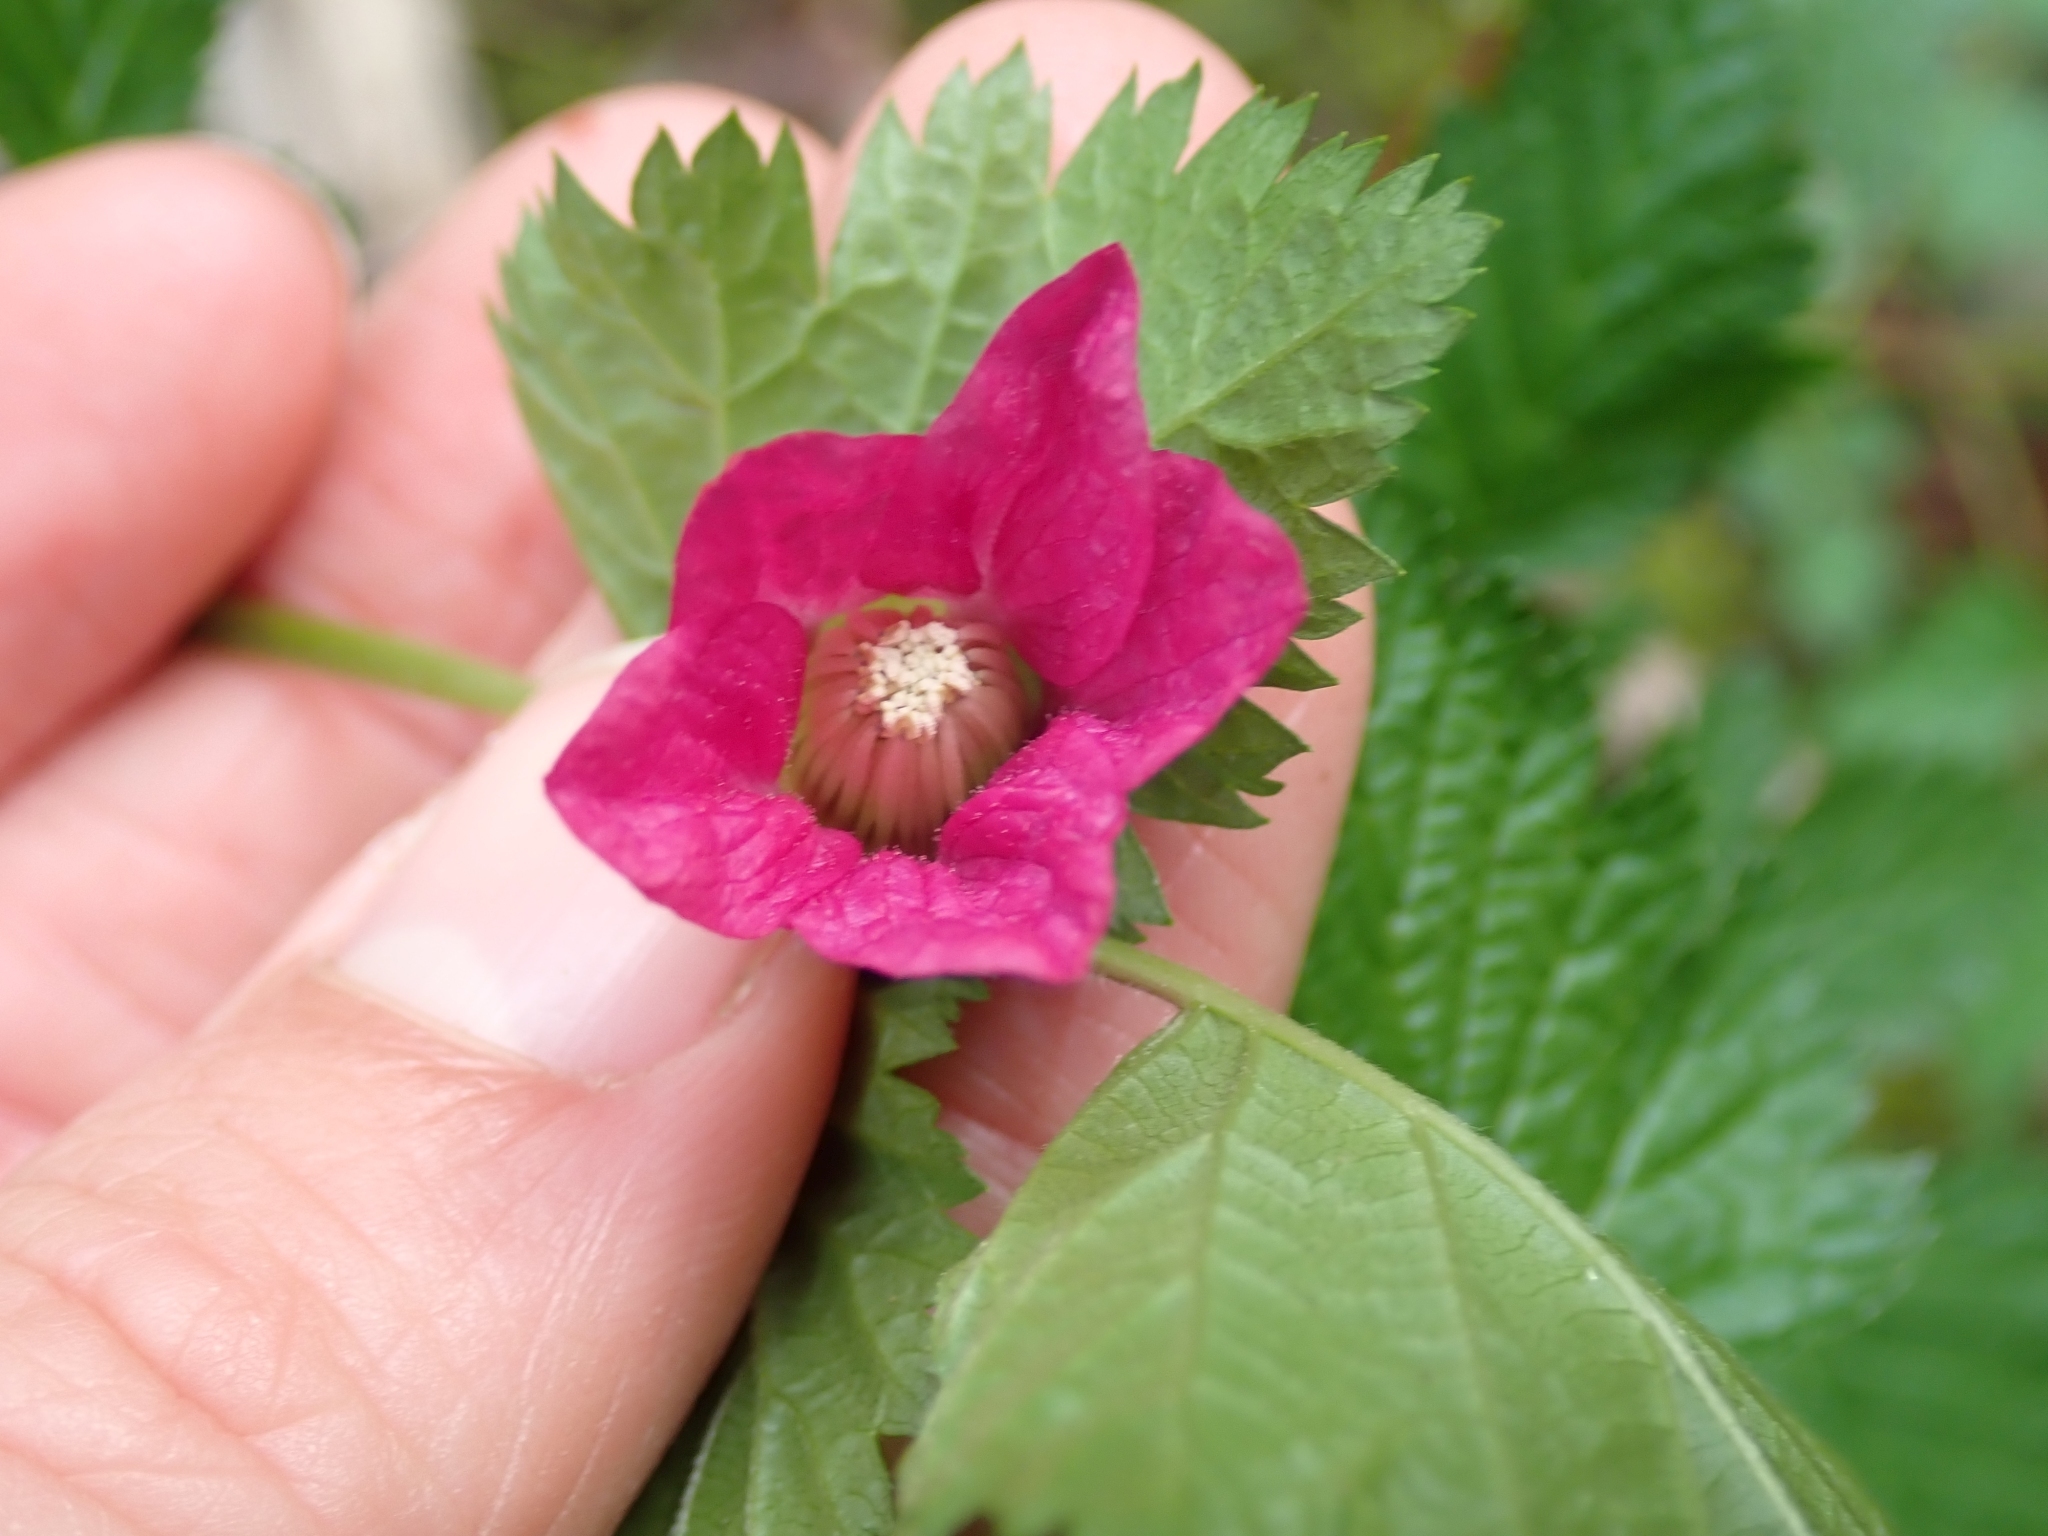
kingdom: Plantae
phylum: Tracheophyta
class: Magnoliopsida
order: Rosales
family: Rosaceae
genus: Rubus
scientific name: Rubus spectabilis
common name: Salmonberry
